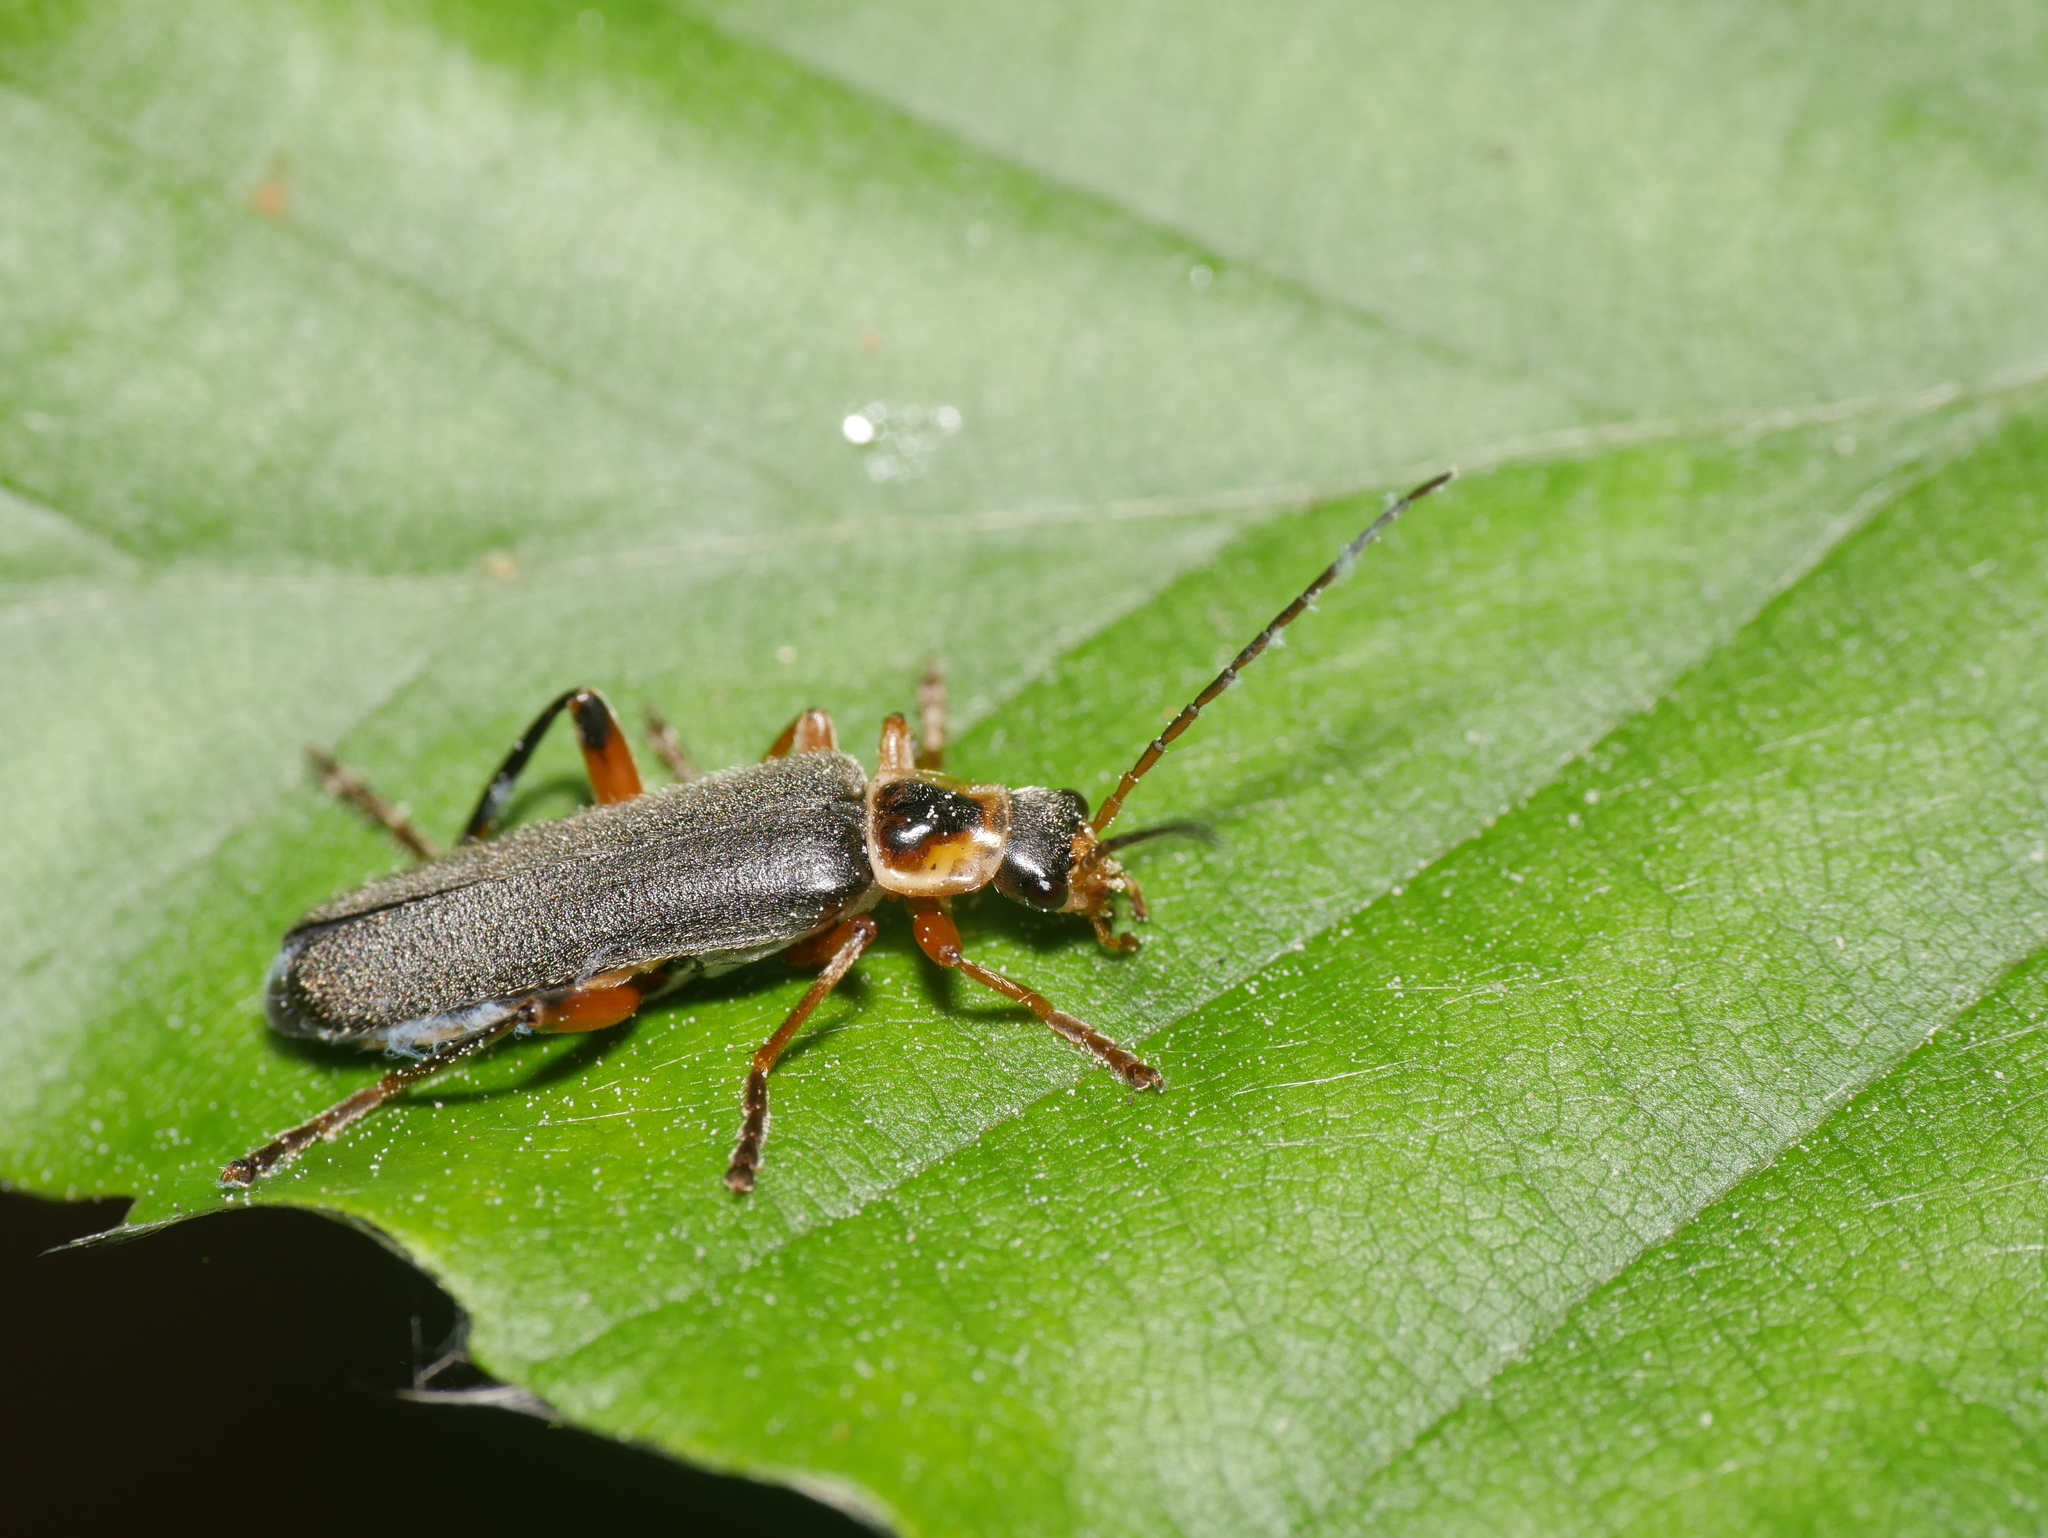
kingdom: Animalia
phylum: Arthropoda
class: Insecta
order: Coleoptera
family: Cantharidae
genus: Cantharis
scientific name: Cantharis nigricans
